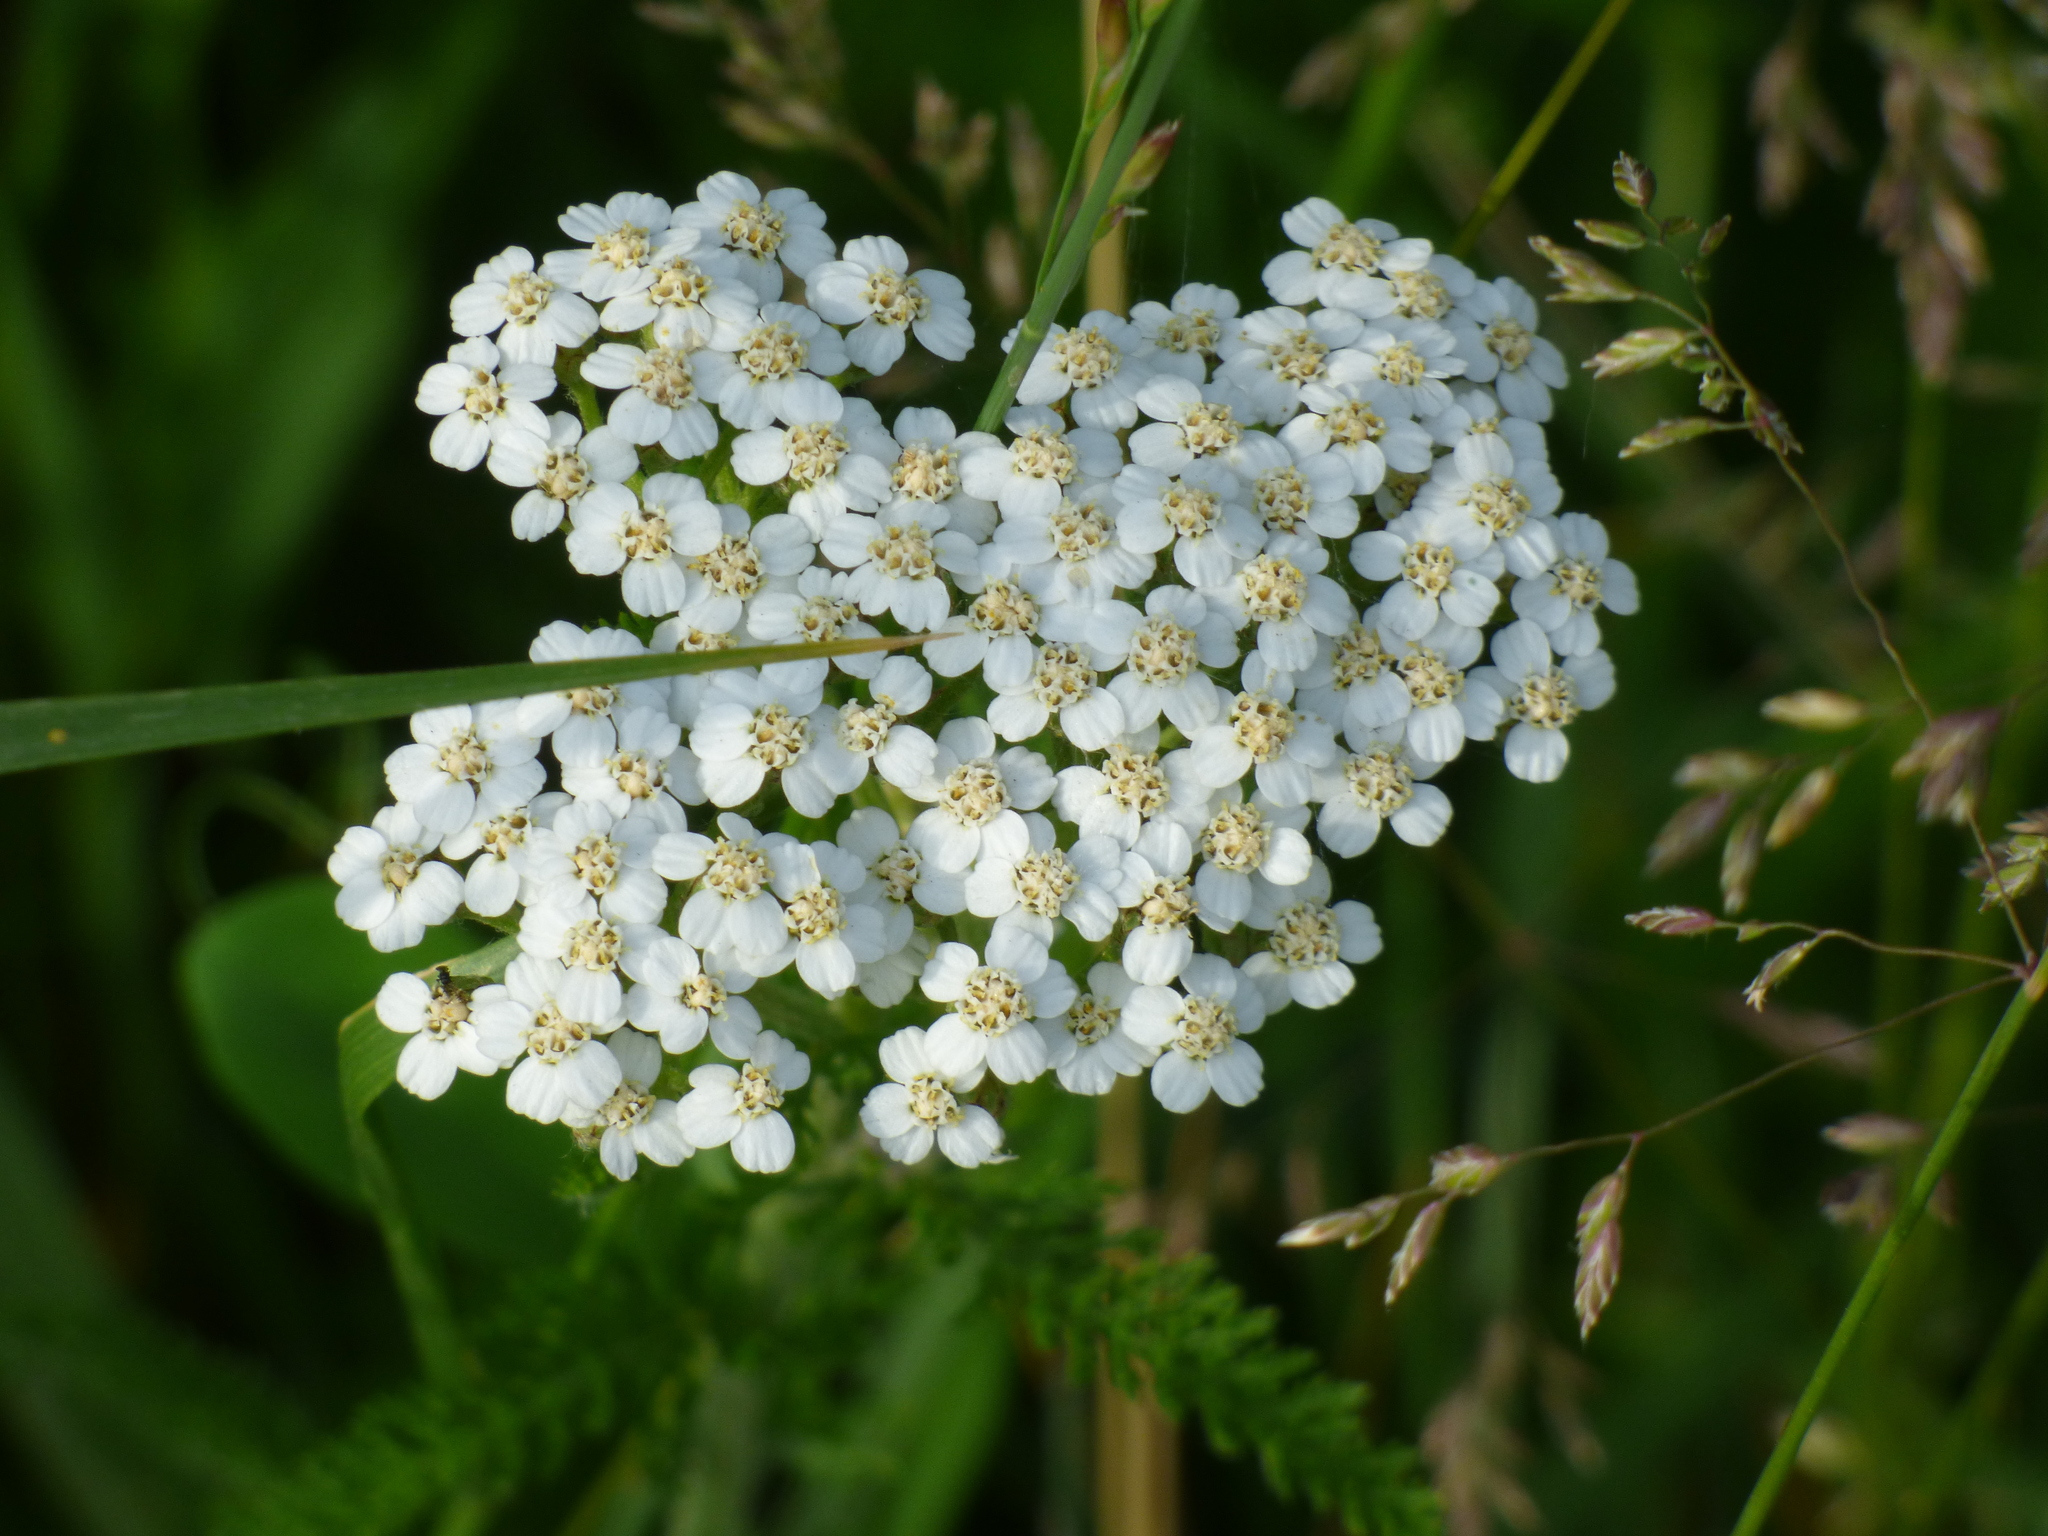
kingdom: Plantae
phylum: Tracheophyta
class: Magnoliopsida
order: Asterales
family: Asteraceae
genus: Achillea
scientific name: Achillea millefolium
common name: Yarrow
